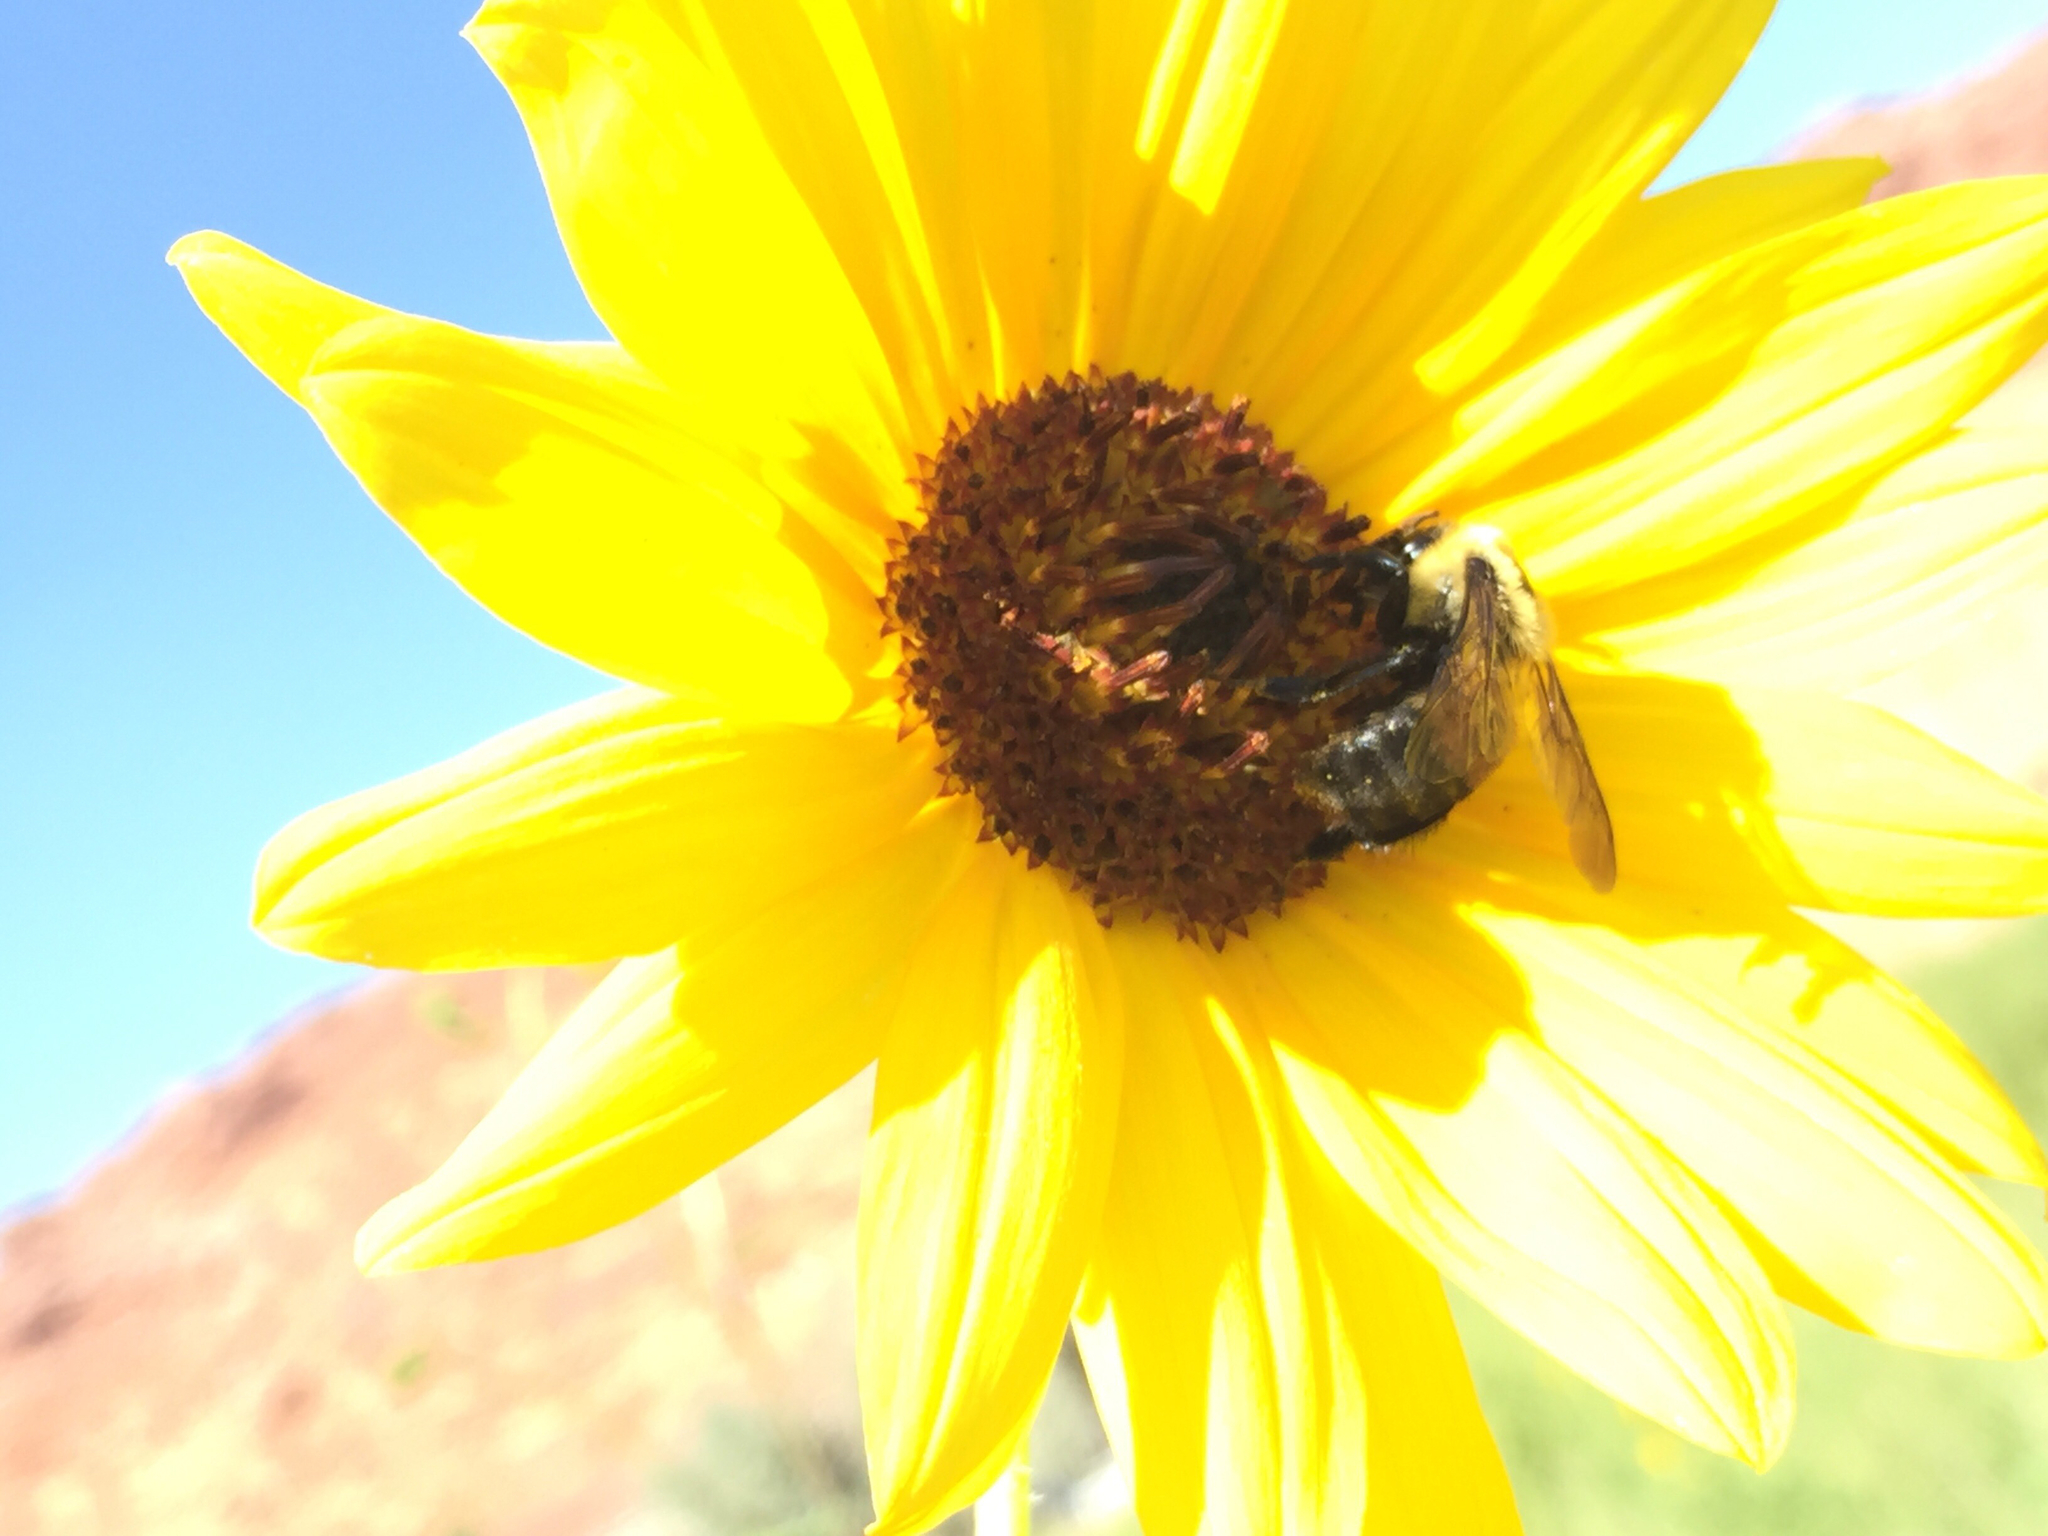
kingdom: Animalia
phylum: Arthropoda
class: Insecta
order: Hymenoptera
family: Apidae
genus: Bombus
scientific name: Bombus griseocollis
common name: Brown-belted bumble bee
